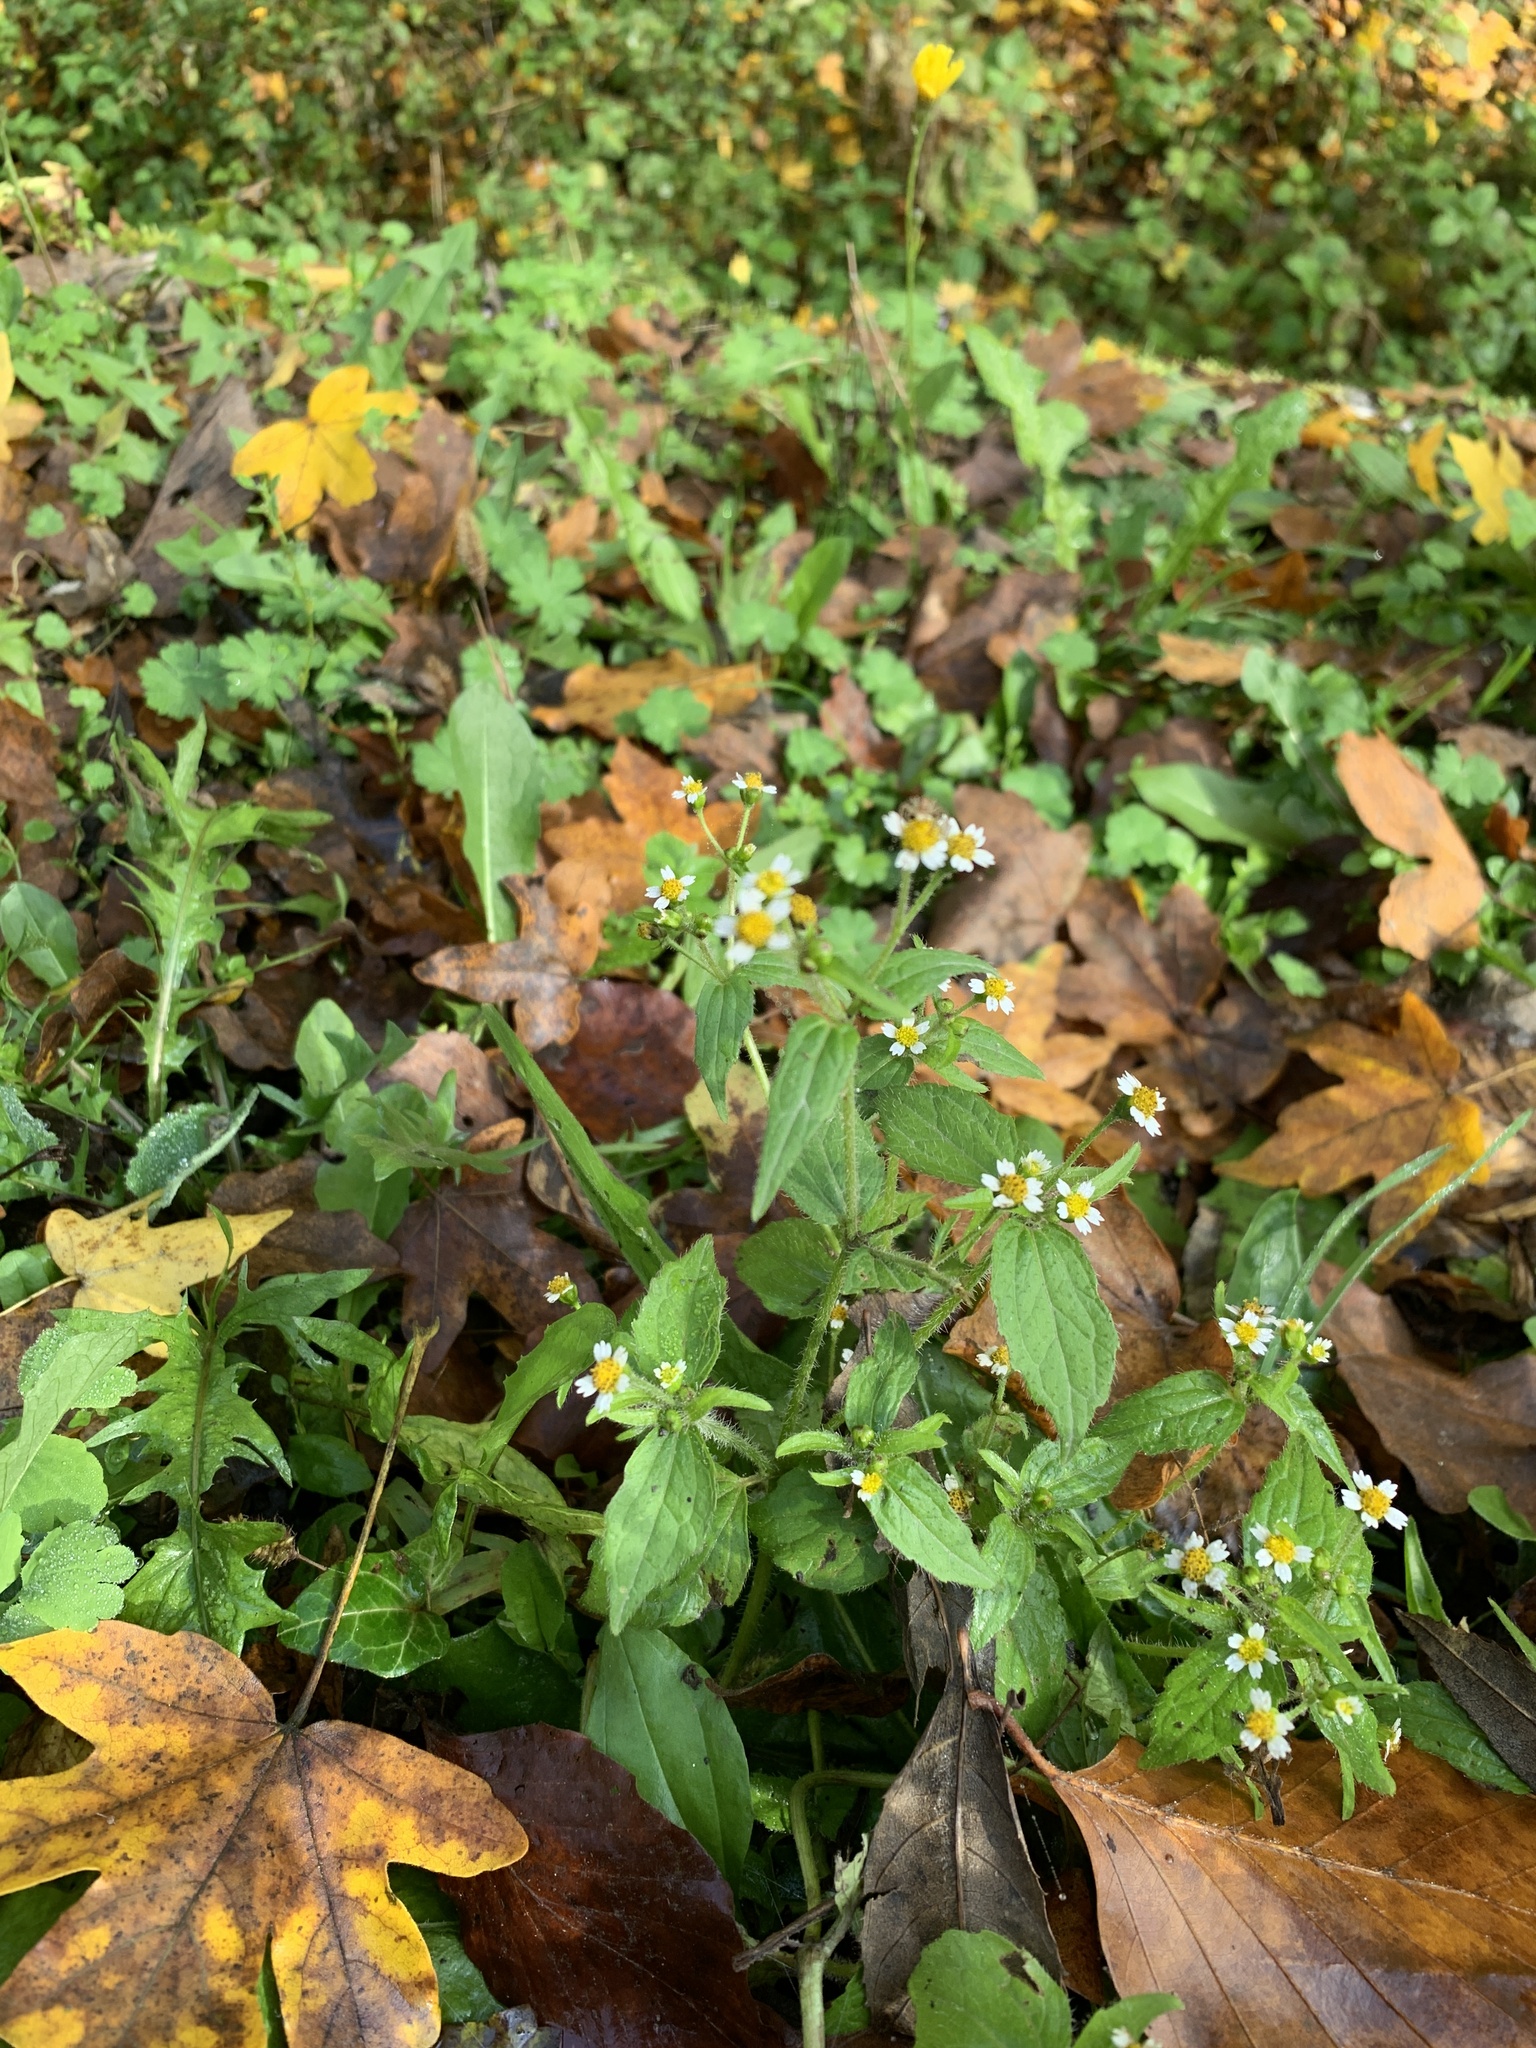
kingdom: Plantae
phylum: Tracheophyta
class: Magnoliopsida
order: Asterales
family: Asteraceae
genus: Galinsoga
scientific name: Galinsoga quadriradiata
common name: Shaggy soldier
